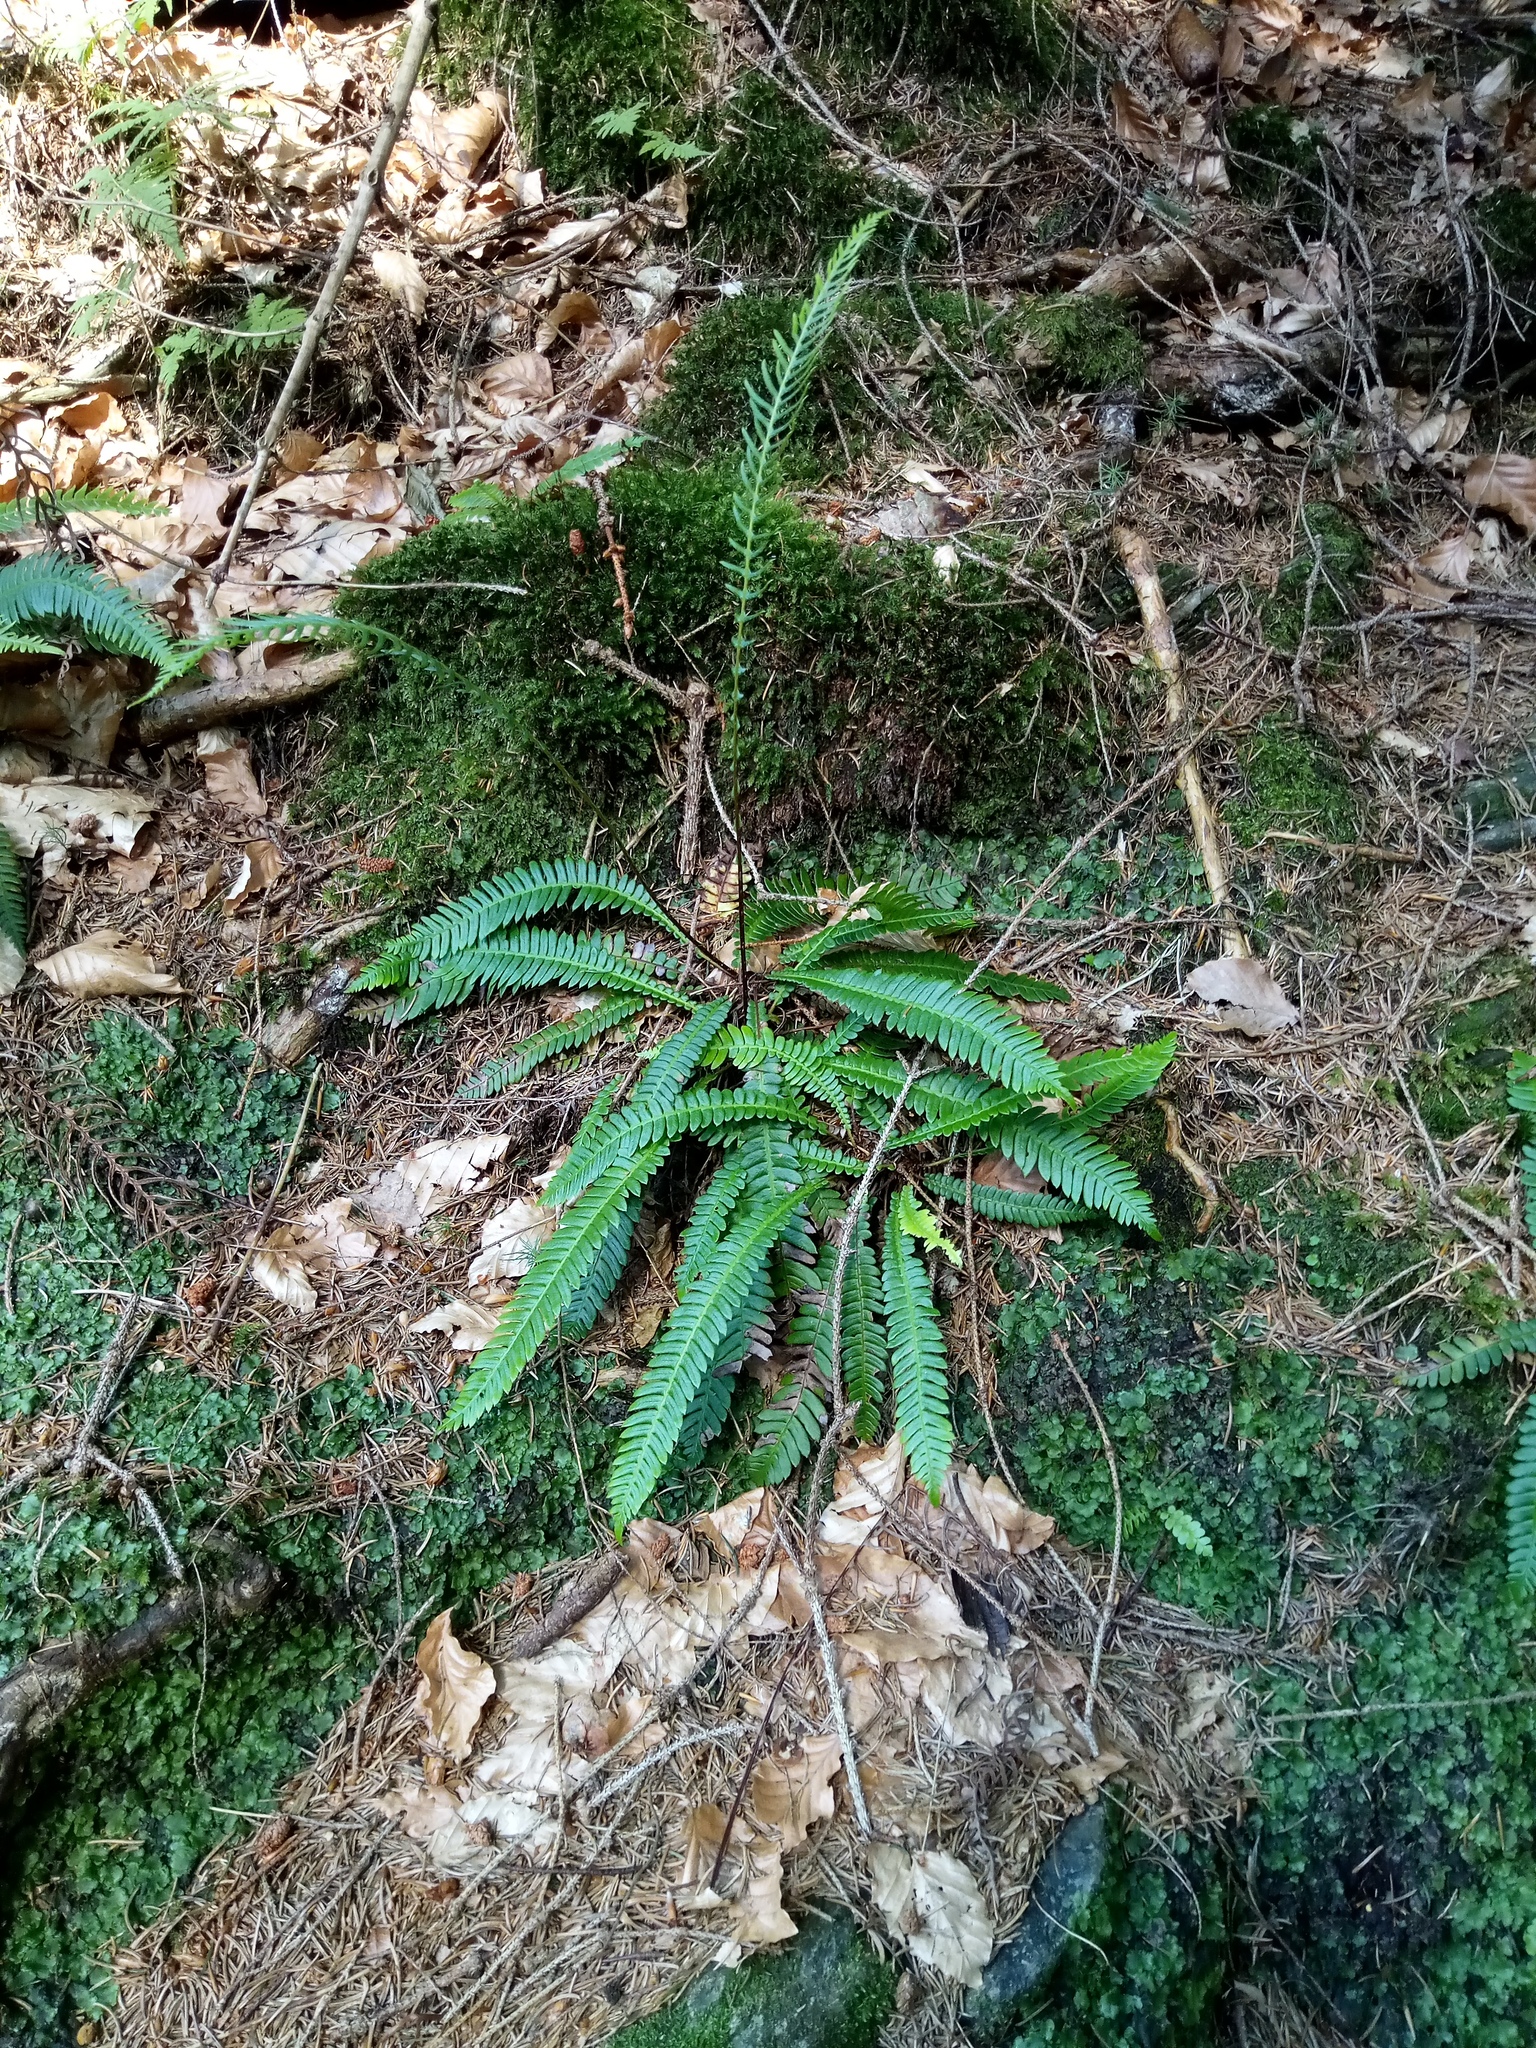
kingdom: Plantae
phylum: Tracheophyta
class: Polypodiopsida
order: Polypodiales
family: Blechnaceae
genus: Struthiopteris
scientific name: Struthiopteris spicant
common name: Deer fern
